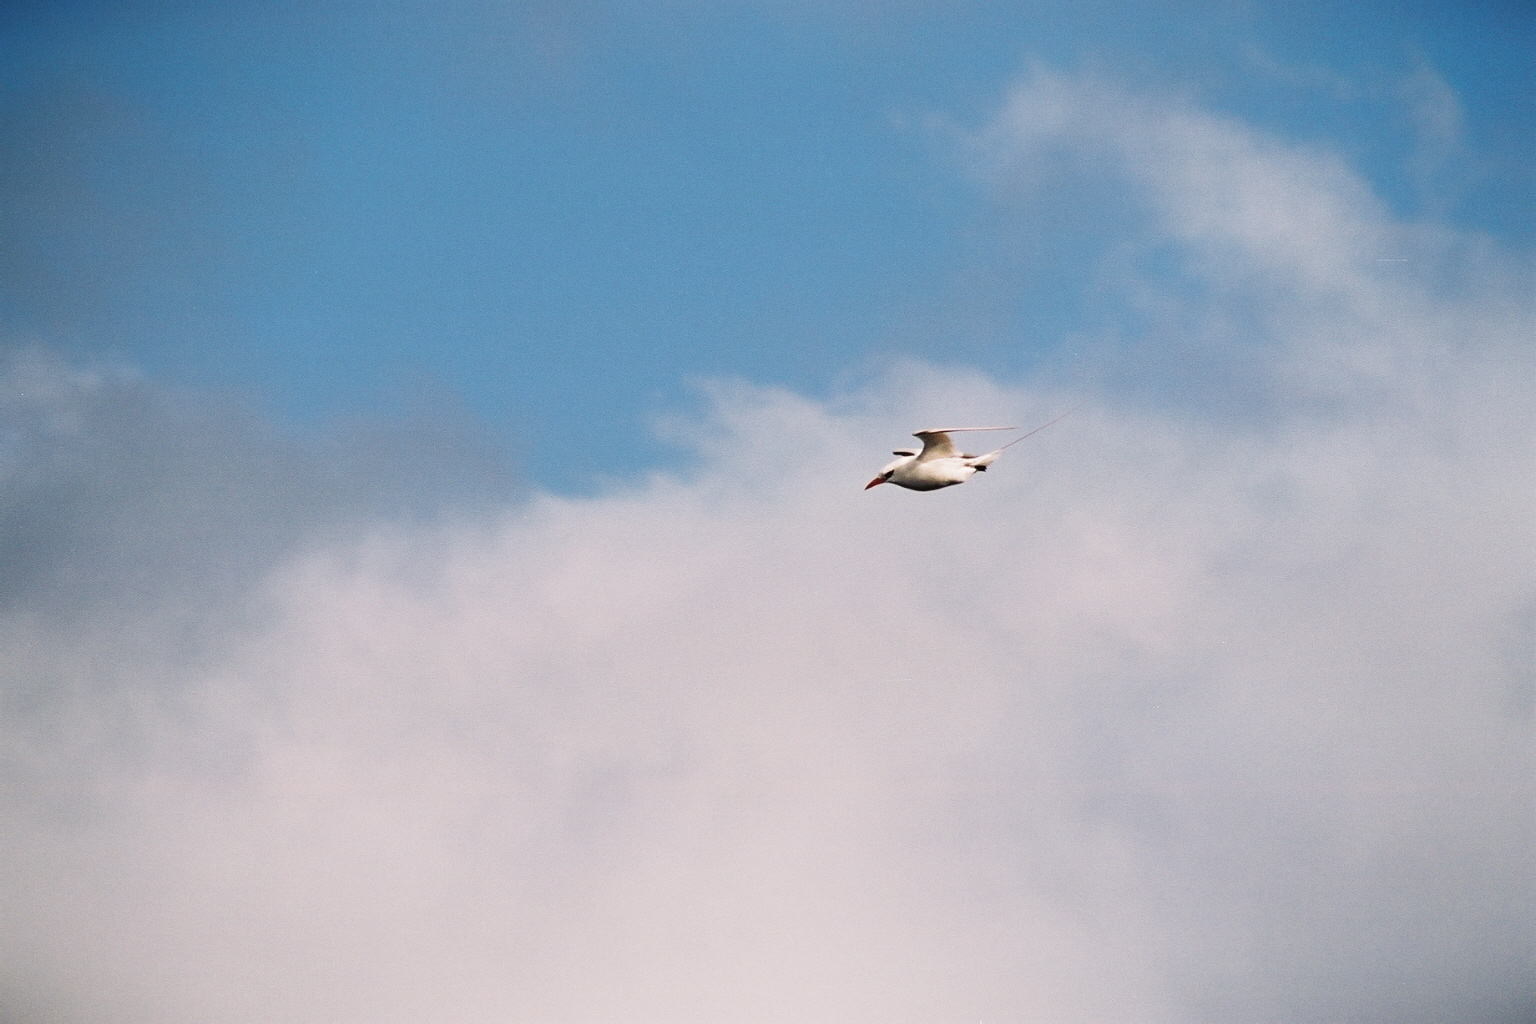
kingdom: Animalia
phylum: Chordata
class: Aves
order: Phaethontiformes
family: Phaethontidae
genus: Phaethon
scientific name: Phaethon rubricauda
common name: Red-tailed tropicbird
